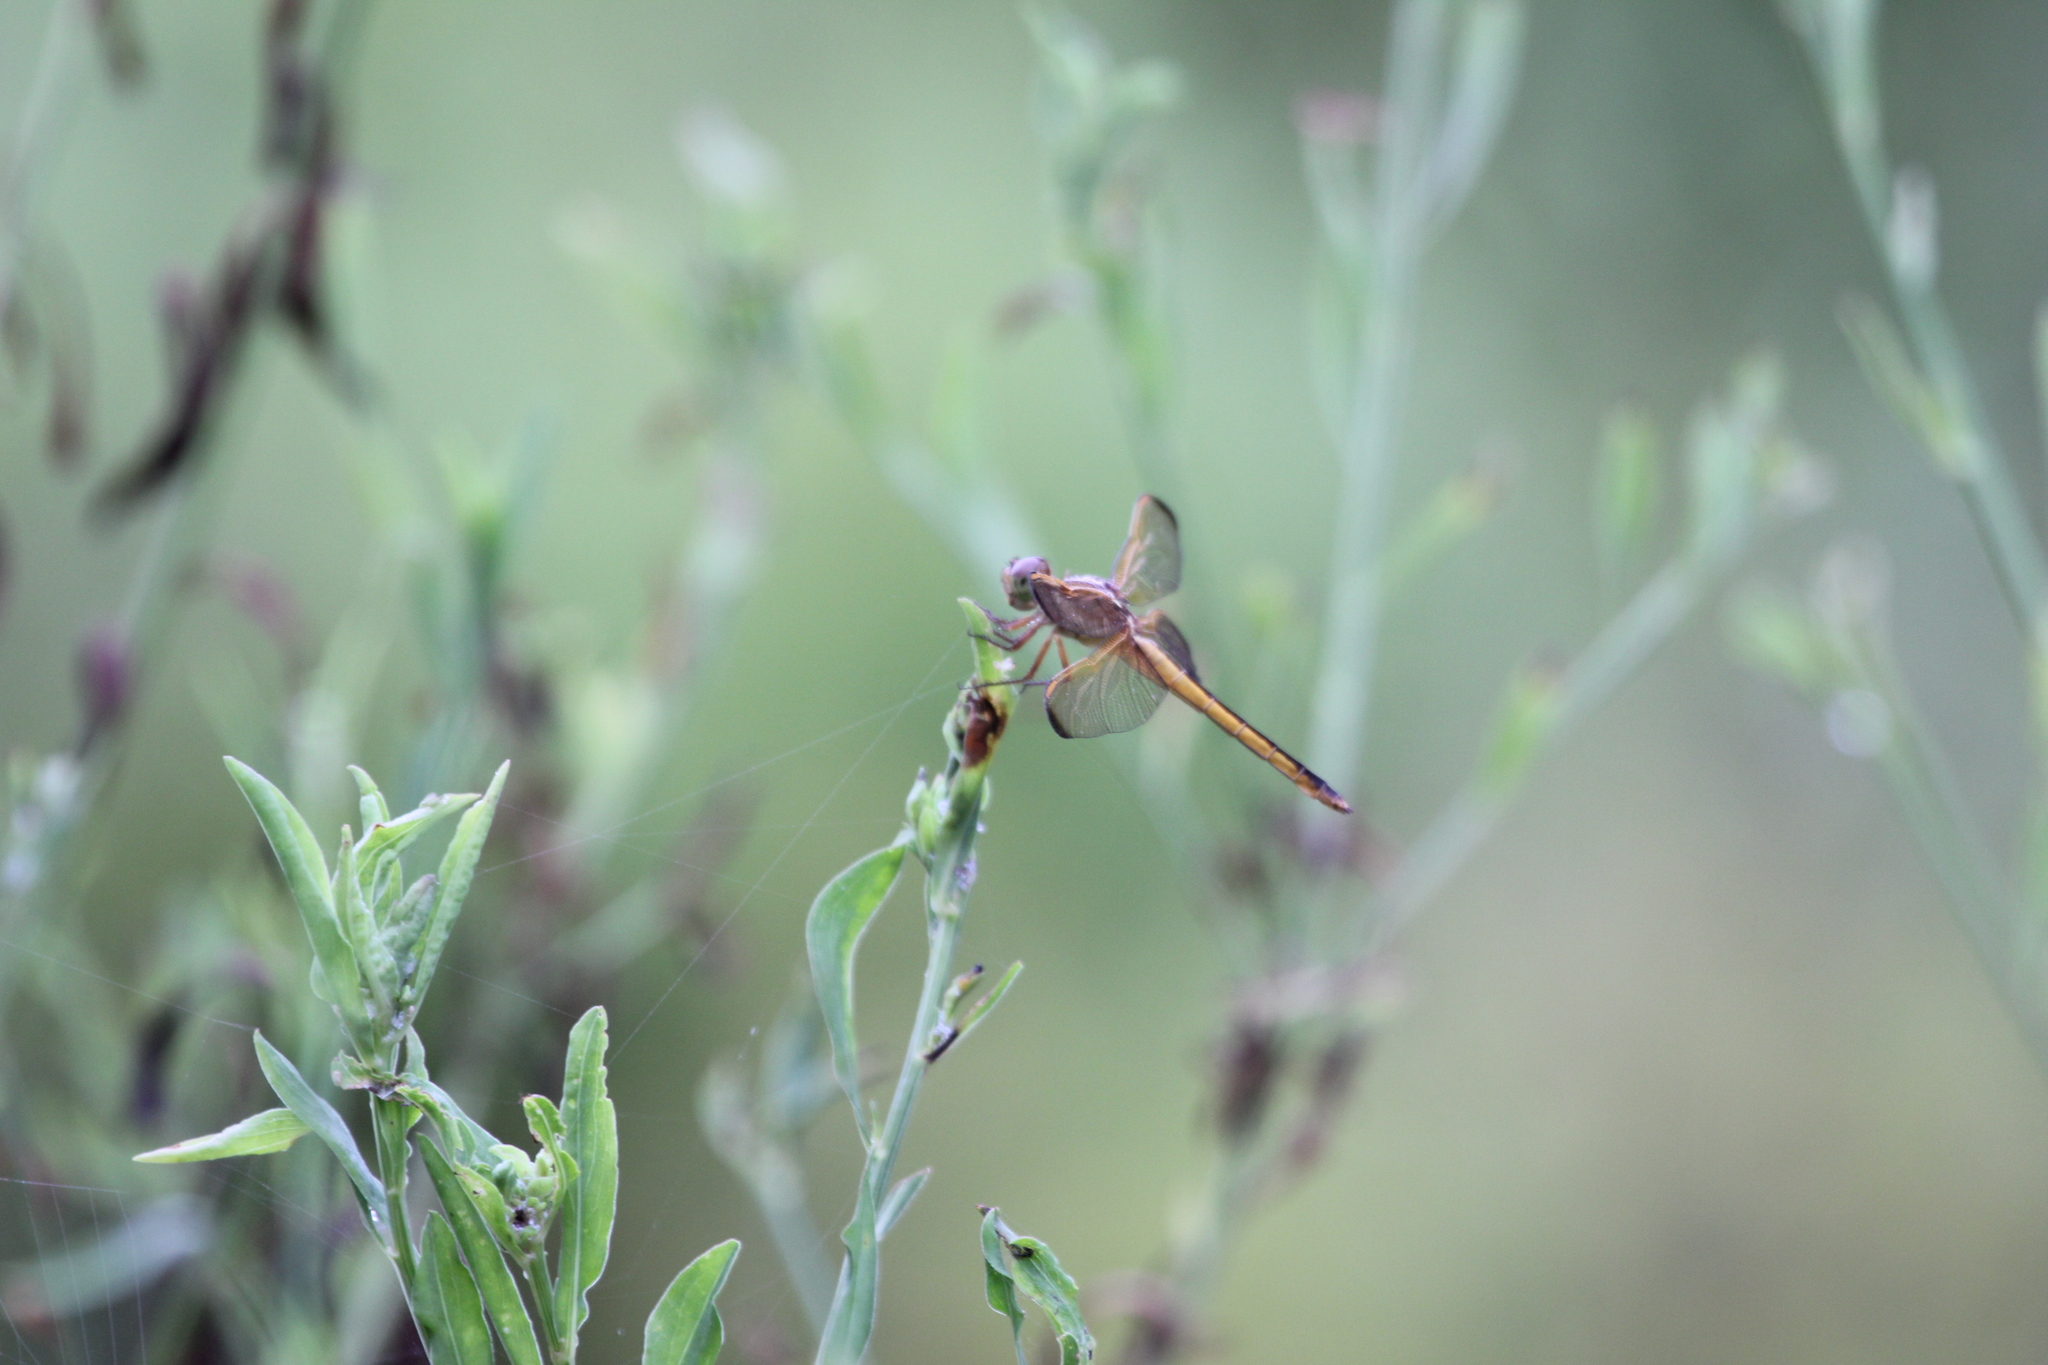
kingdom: Animalia
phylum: Arthropoda
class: Insecta
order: Odonata
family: Libellulidae
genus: Libellula
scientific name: Libellula needhami
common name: Needham's skimmer
